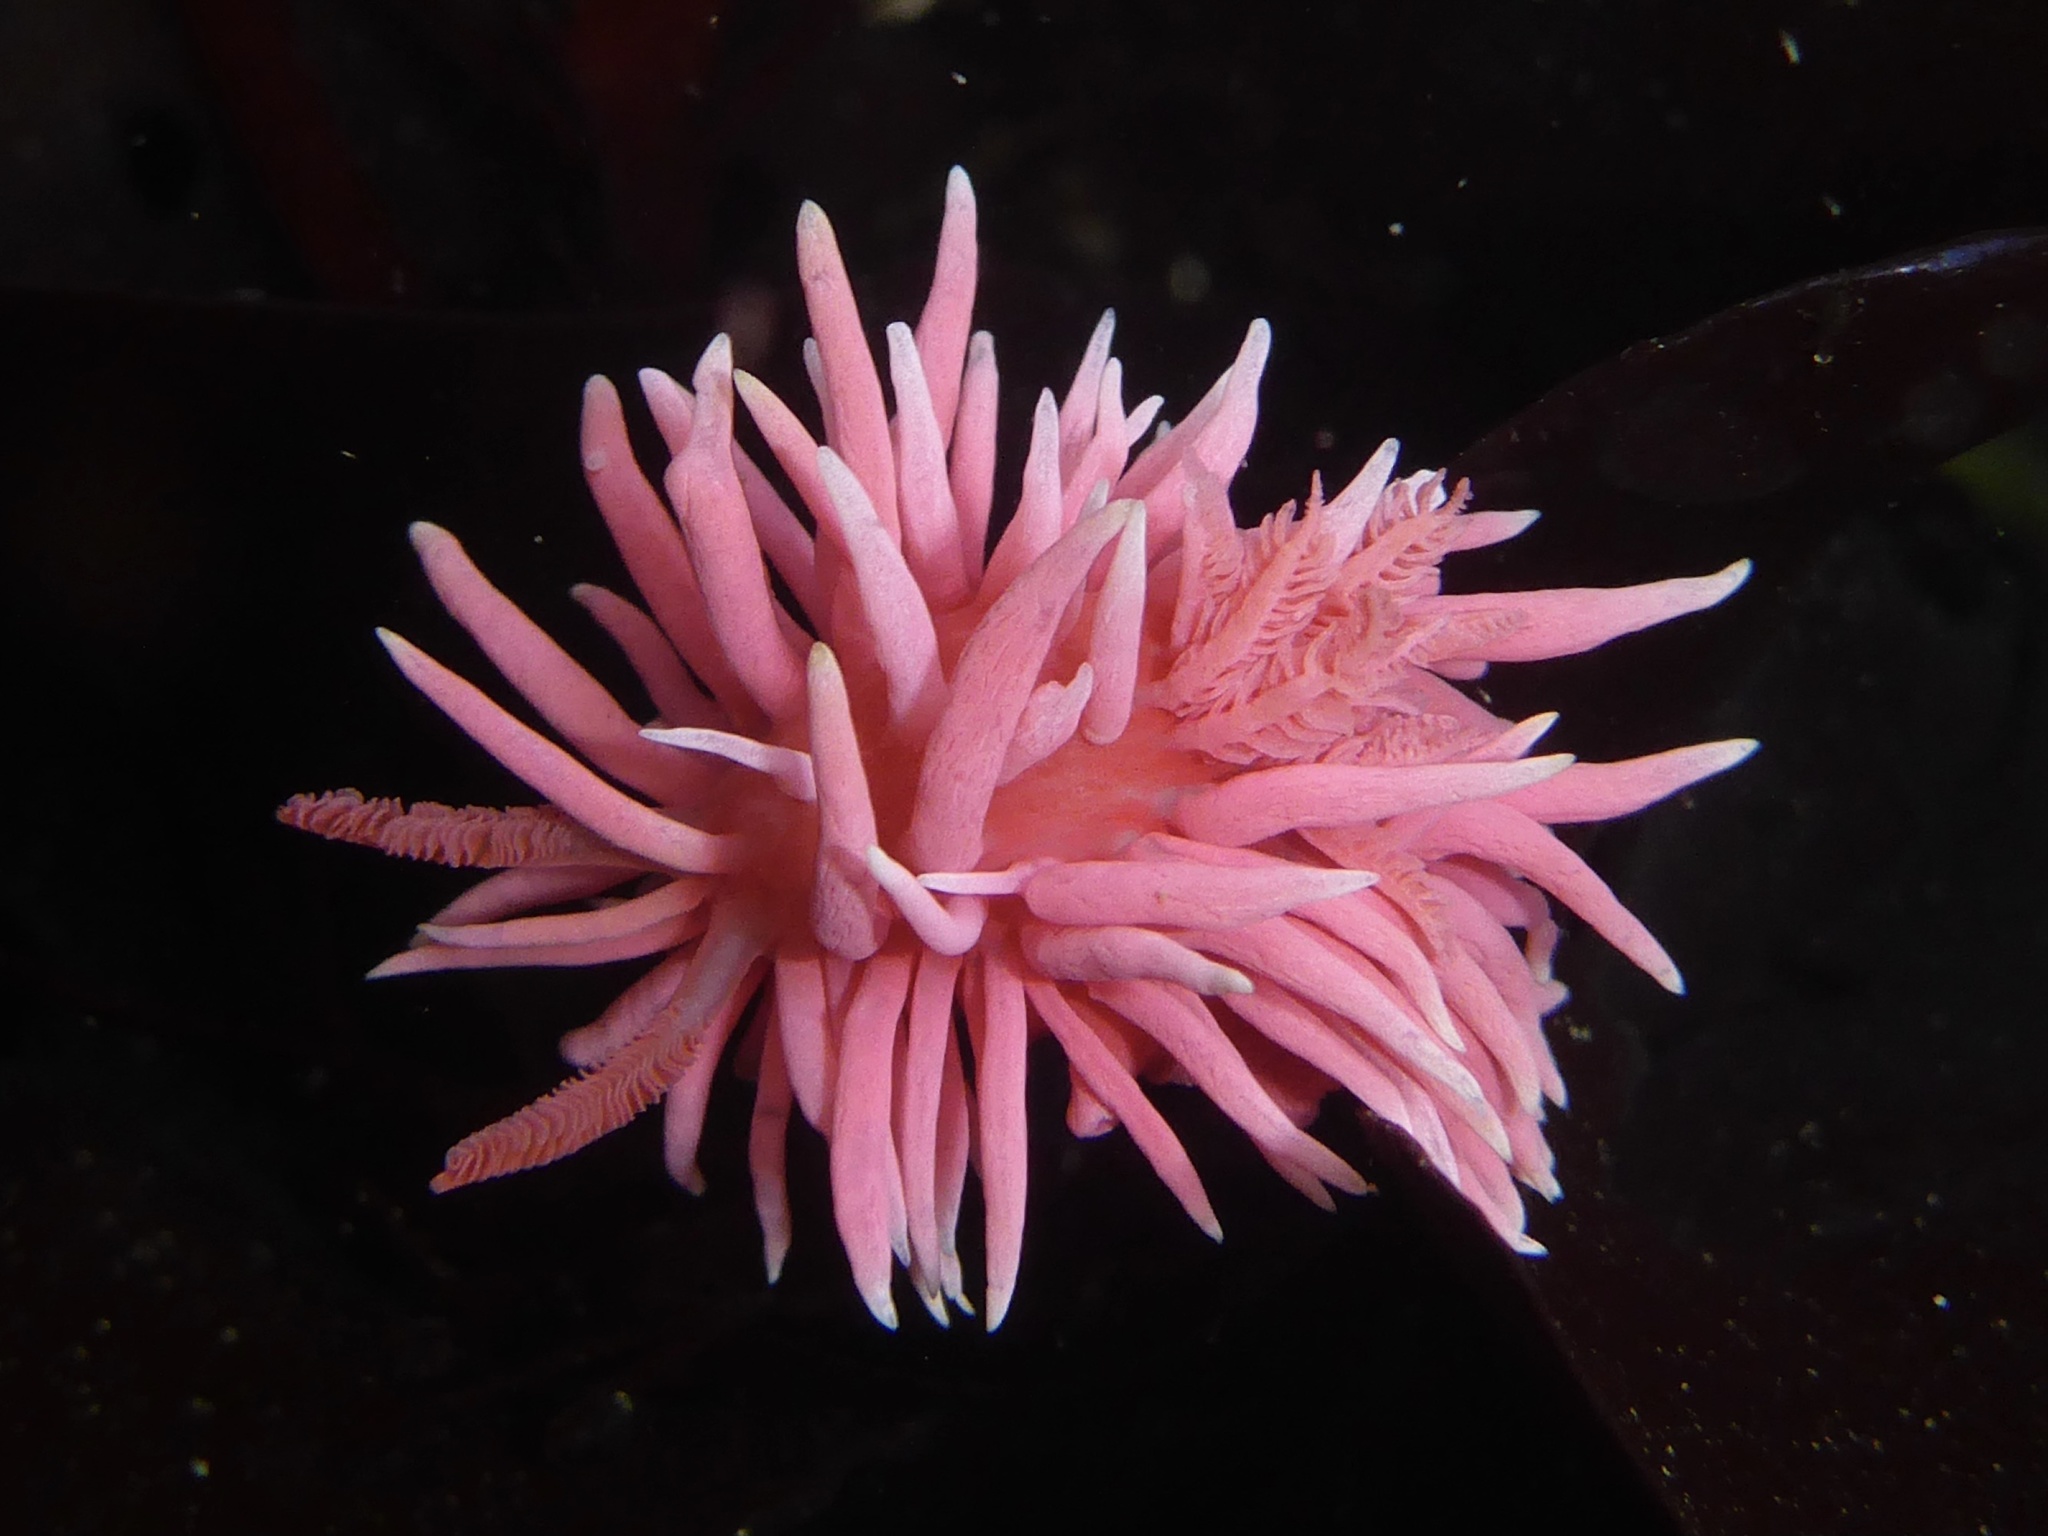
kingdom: Animalia
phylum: Mollusca
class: Gastropoda
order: Nudibranchia
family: Goniodorididae
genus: Okenia
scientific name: Okenia
